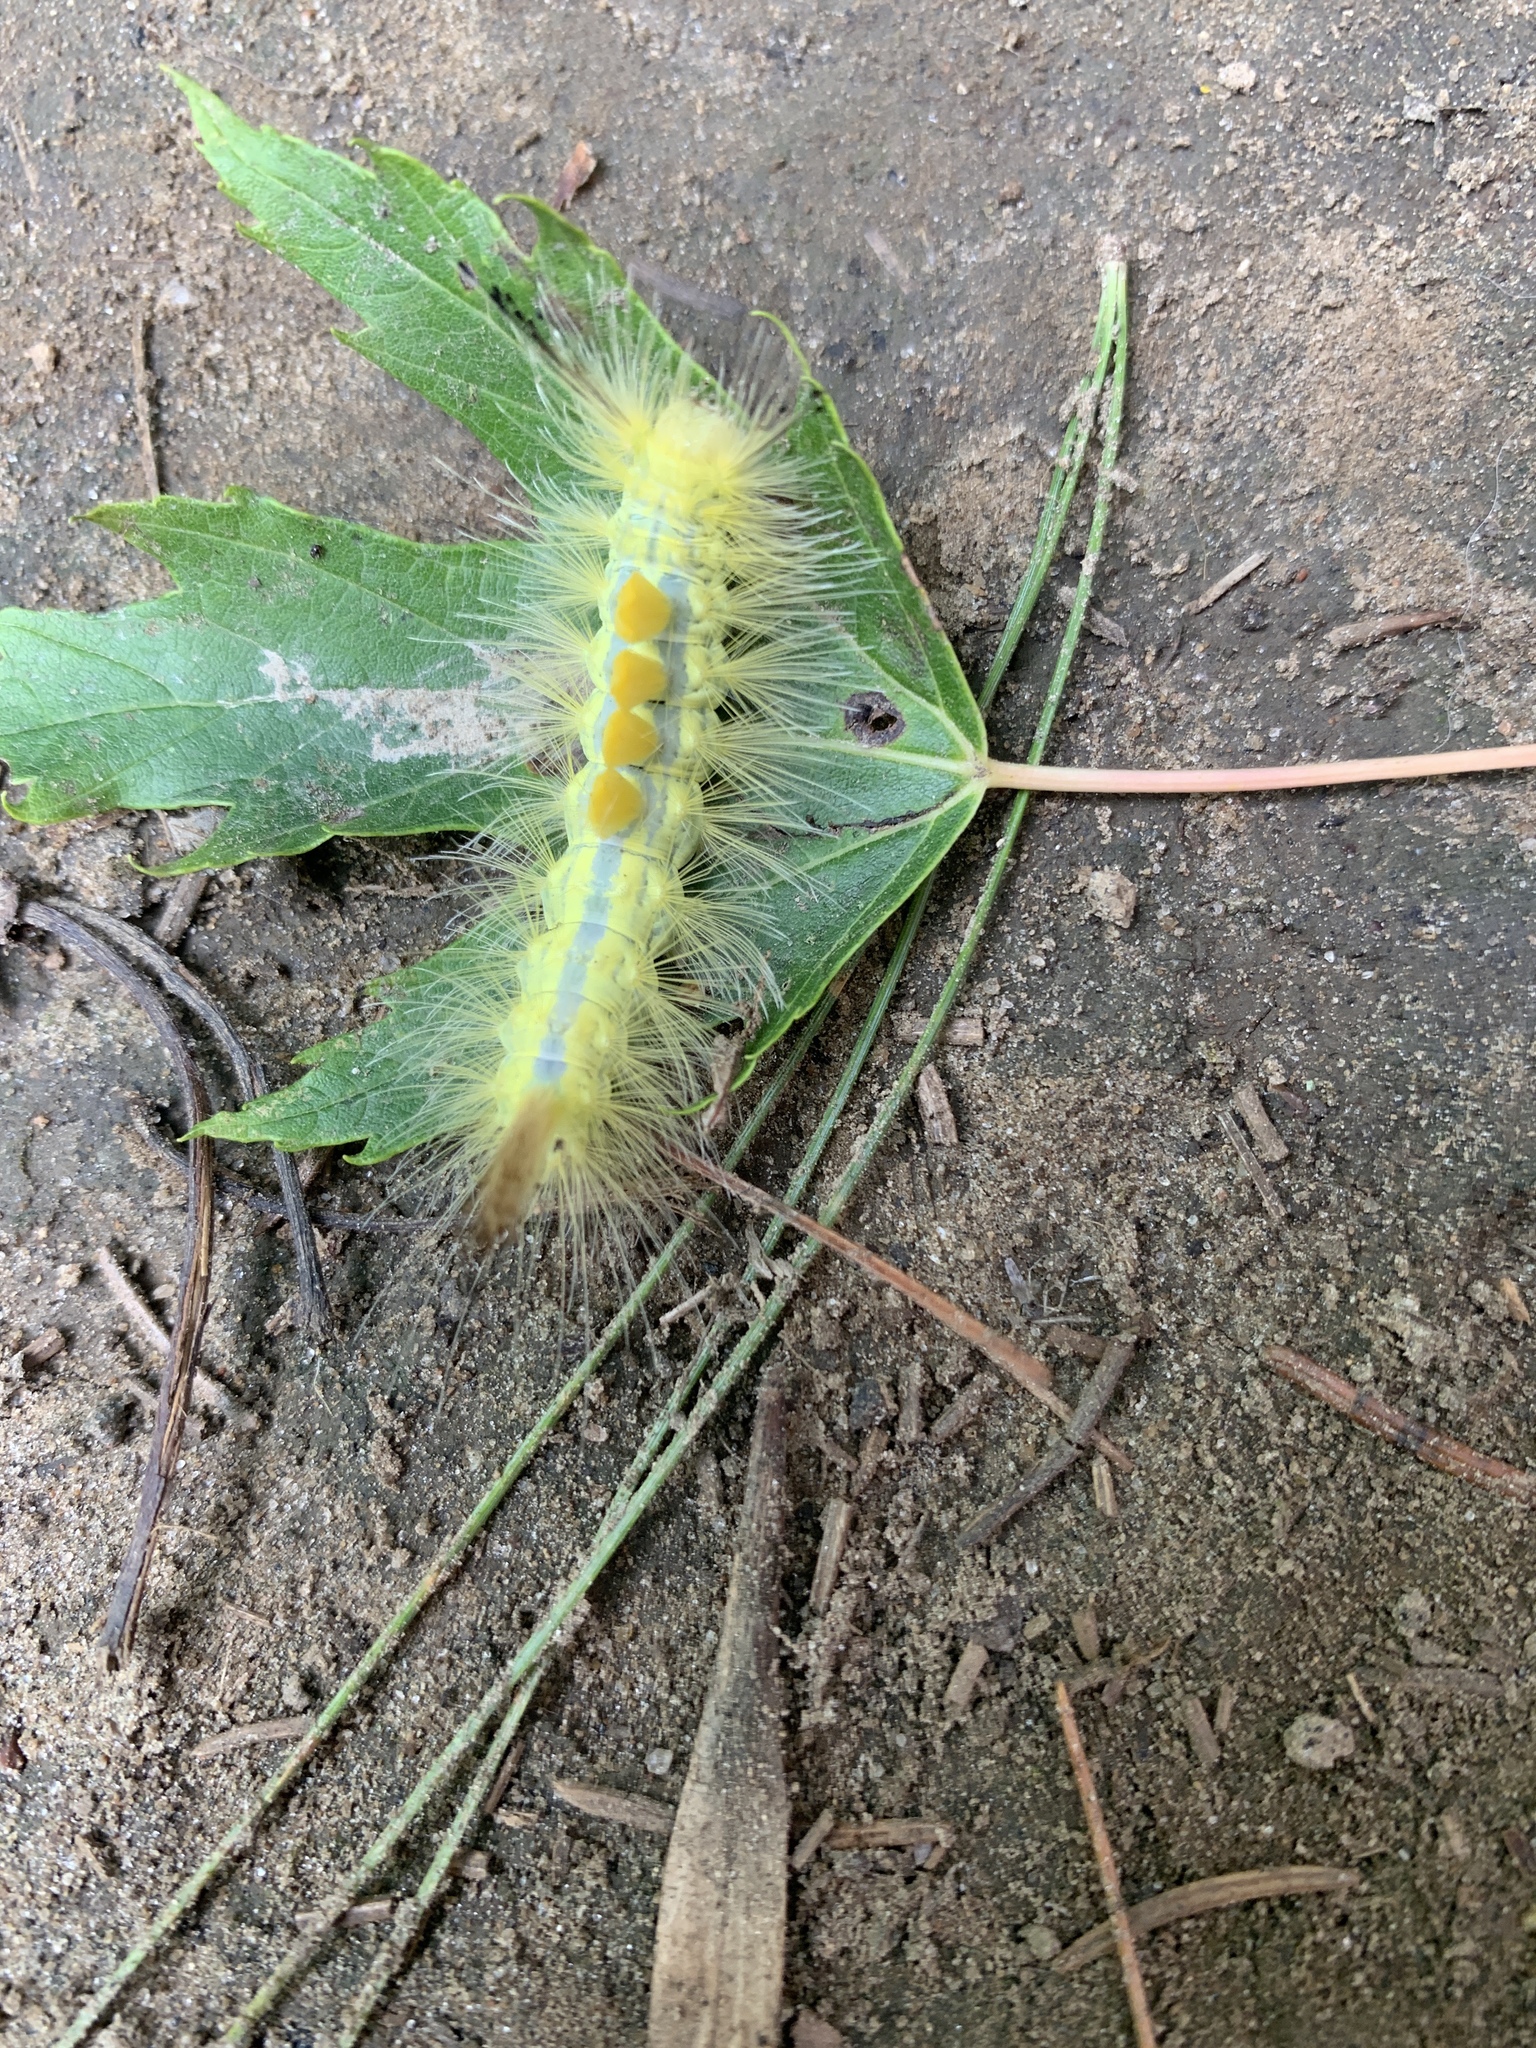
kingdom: Animalia
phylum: Arthropoda
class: Insecta
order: Lepidoptera
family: Erebidae
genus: Orgyia
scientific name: Orgyia definita
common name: Definite tussock moth
